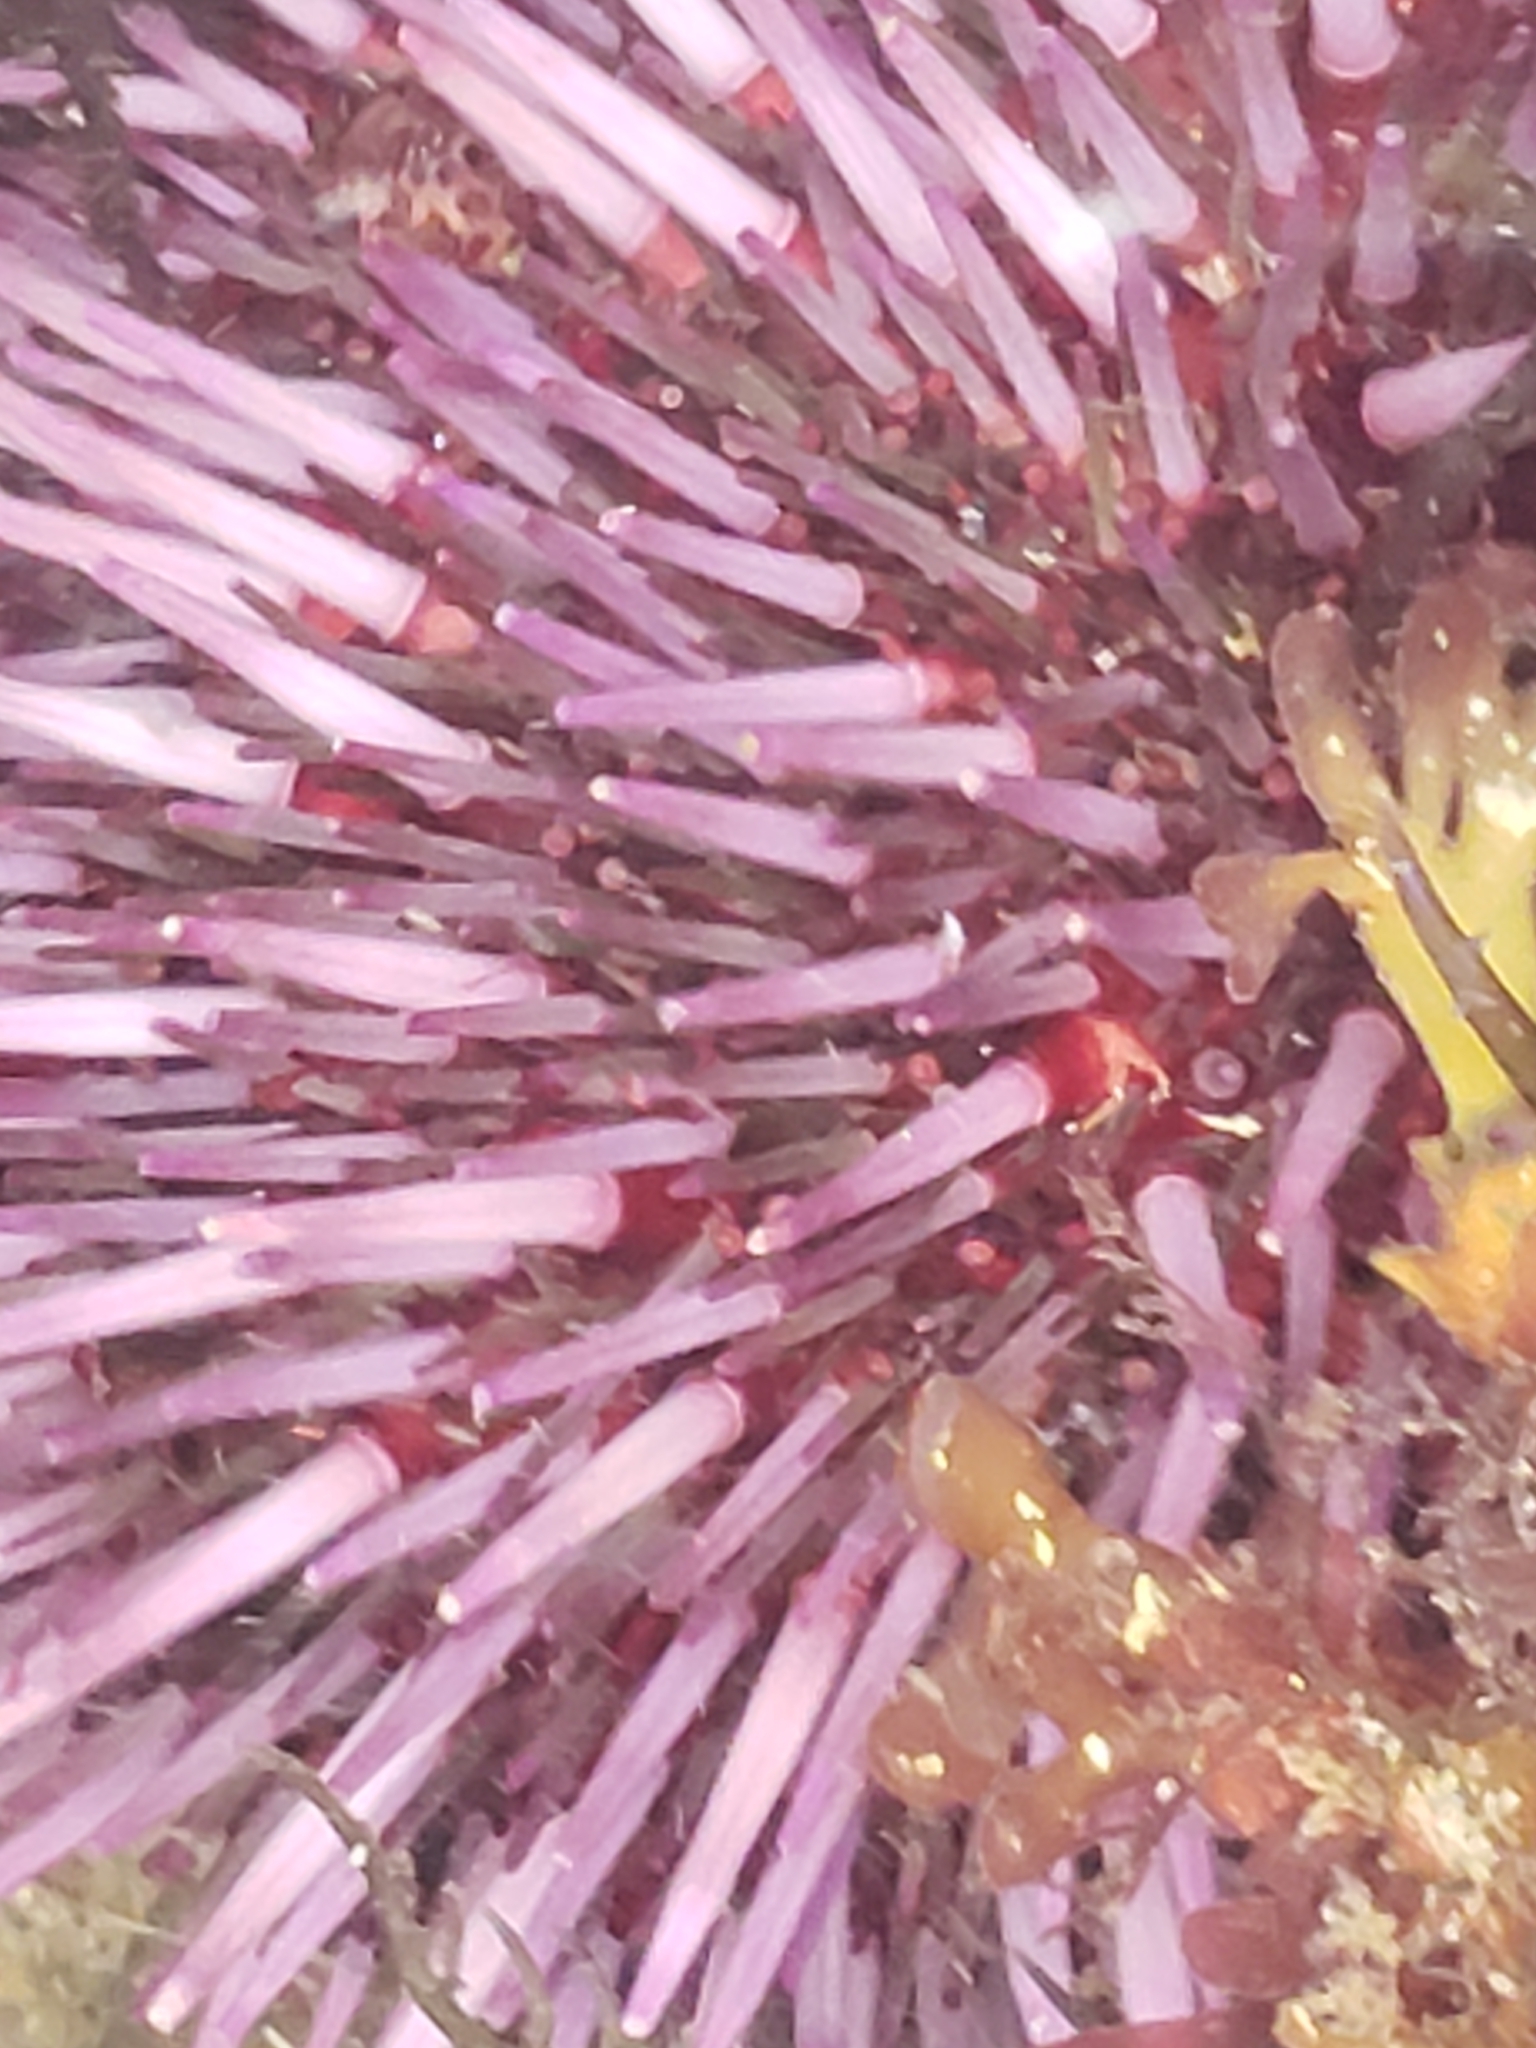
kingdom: Animalia
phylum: Echinodermata
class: Echinoidea
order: Camarodonta
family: Strongylocentrotidae
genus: Strongylocentrotus
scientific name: Strongylocentrotus purpuratus
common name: Purple sea urchin
